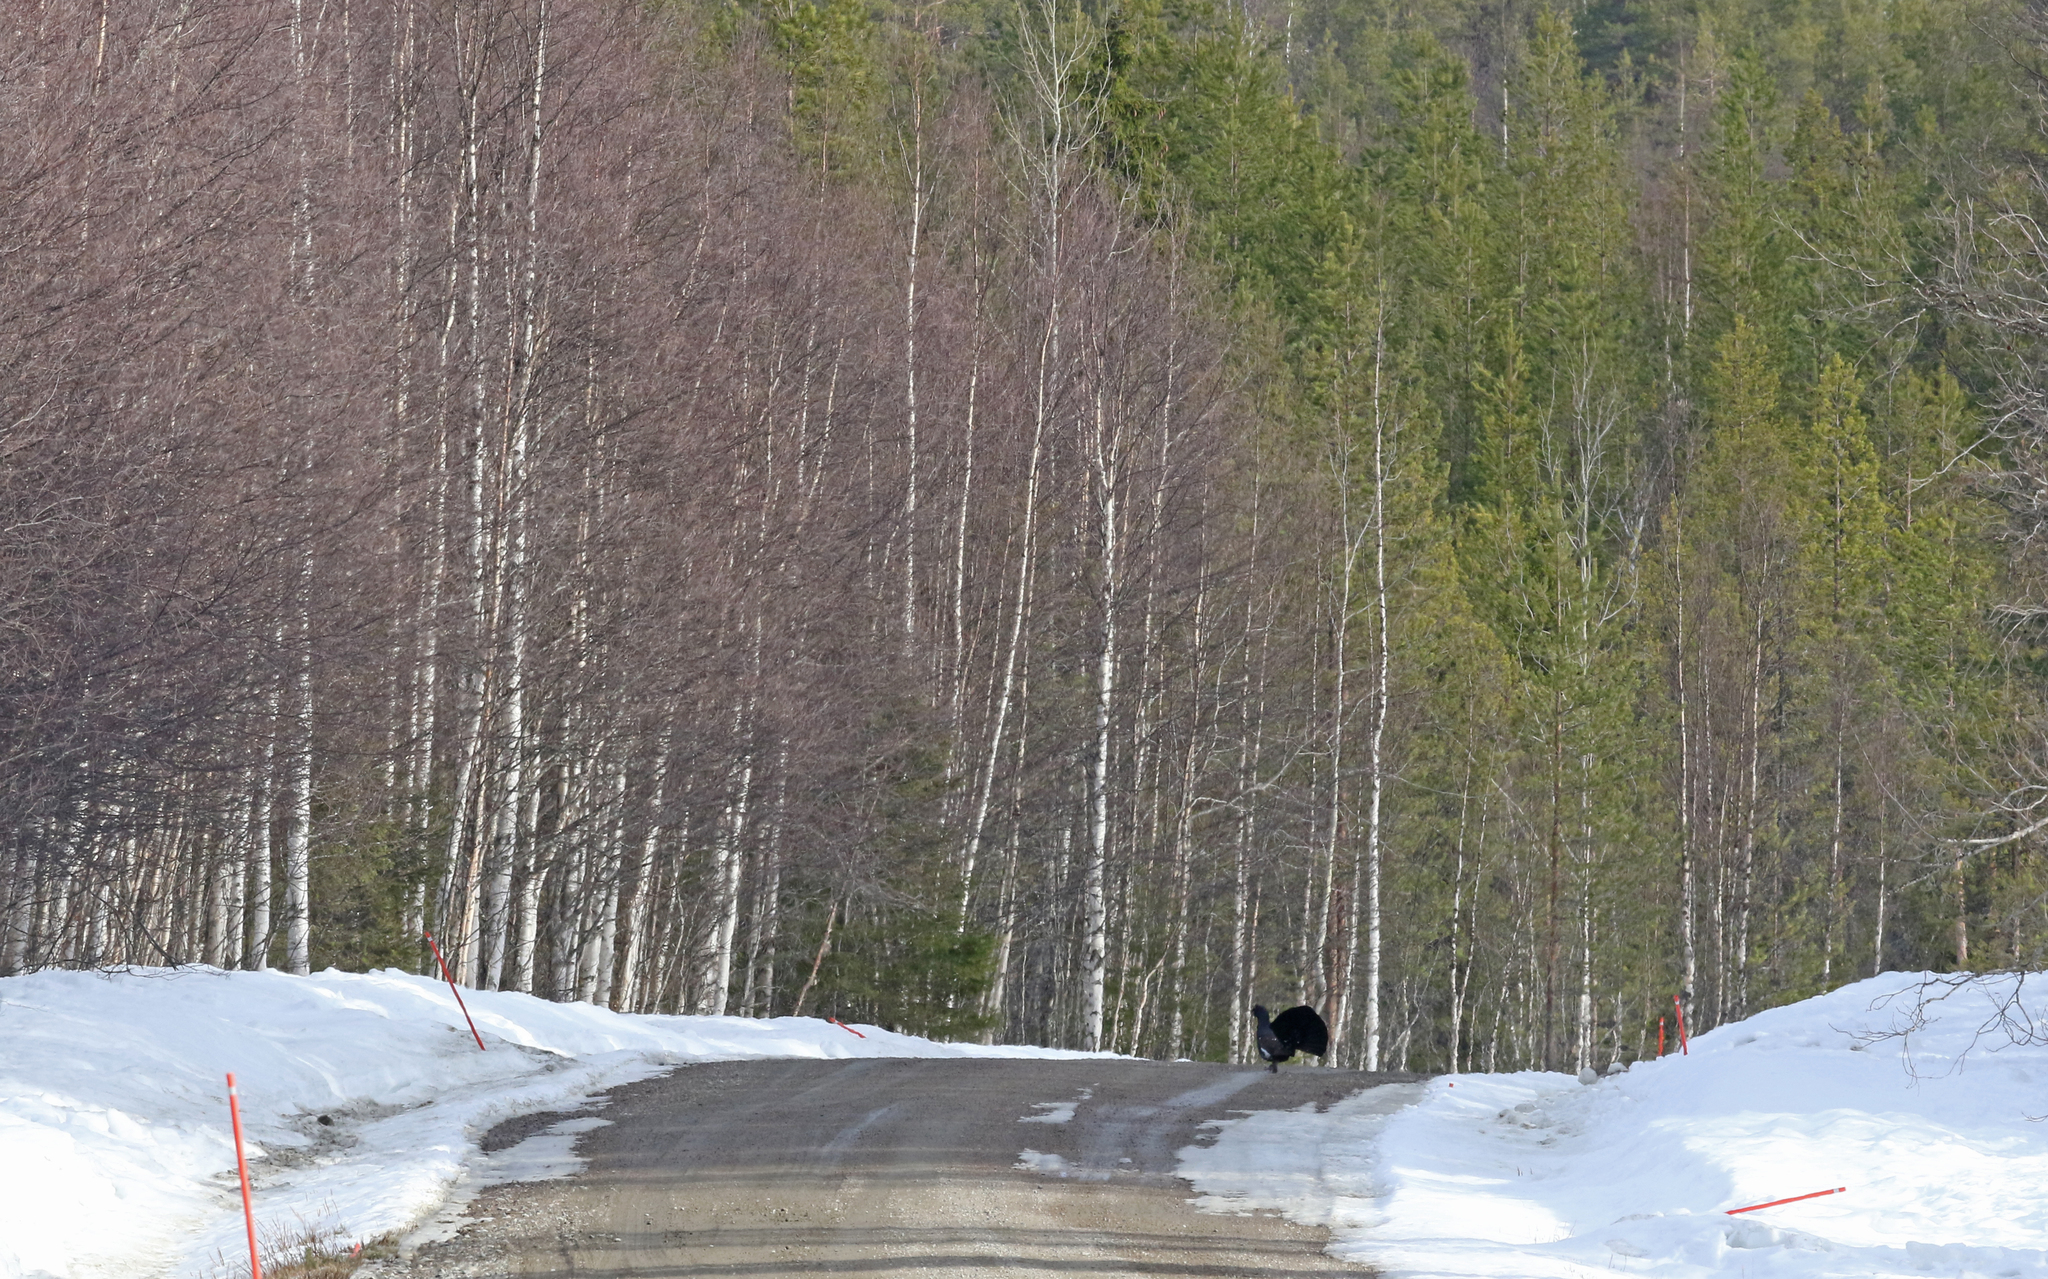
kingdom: Animalia
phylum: Chordata
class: Aves
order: Galliformes
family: Phasianidae
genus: Tetrao
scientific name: Tetrao urogallus
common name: Western capercaillie
